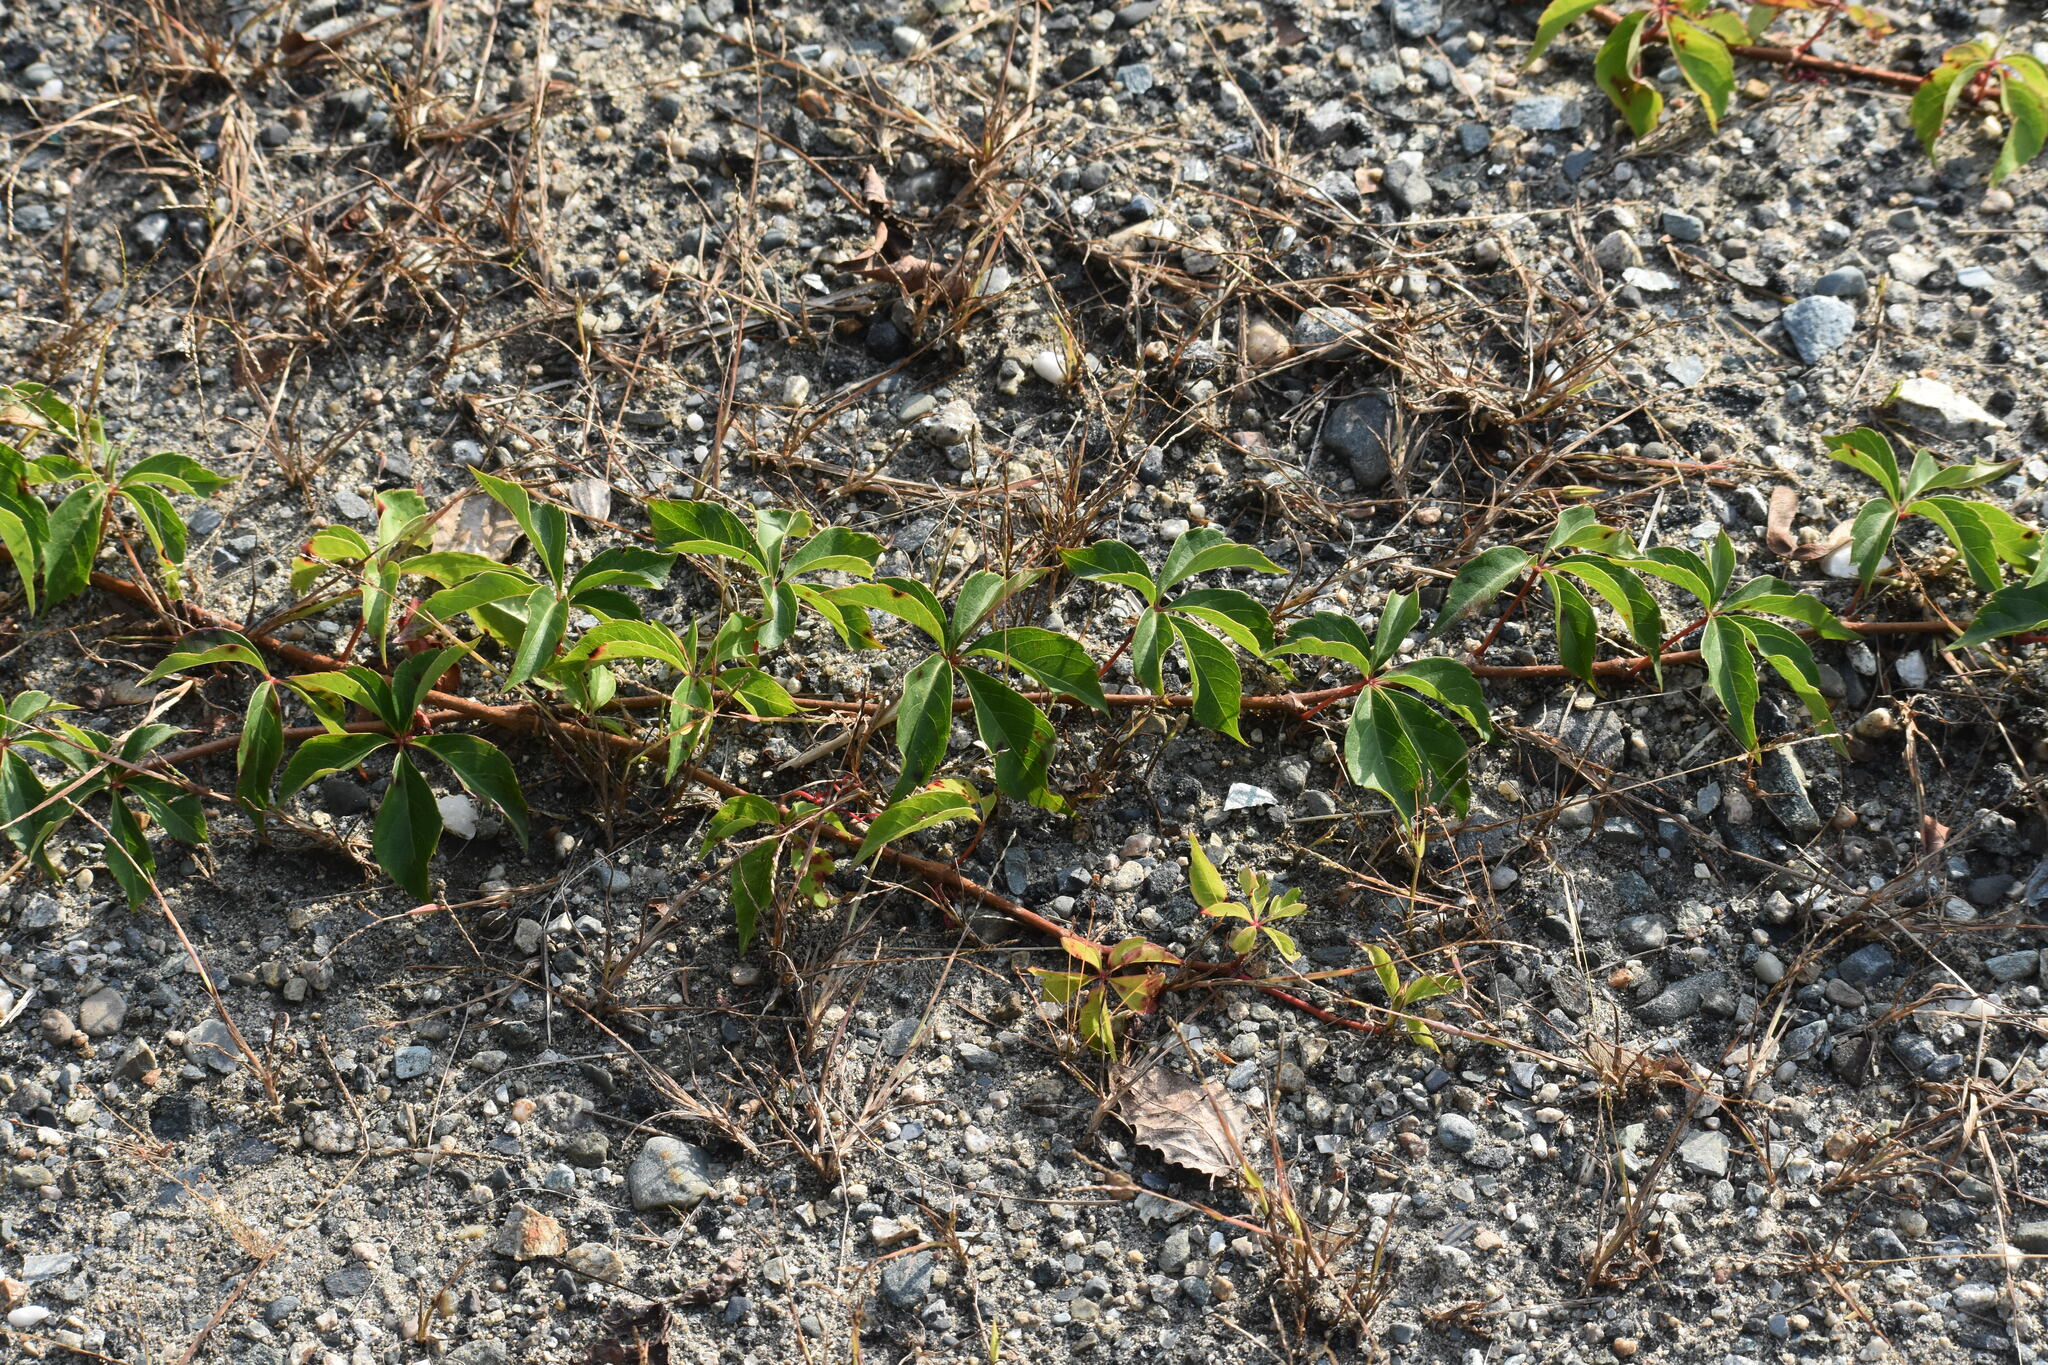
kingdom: Plantae
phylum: Tracheophyta
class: Magnoliopsida
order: Vitales
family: Vitaceae
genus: Parthenocissus
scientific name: Parthenocissus quinquefolia
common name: Virginia-creeper
